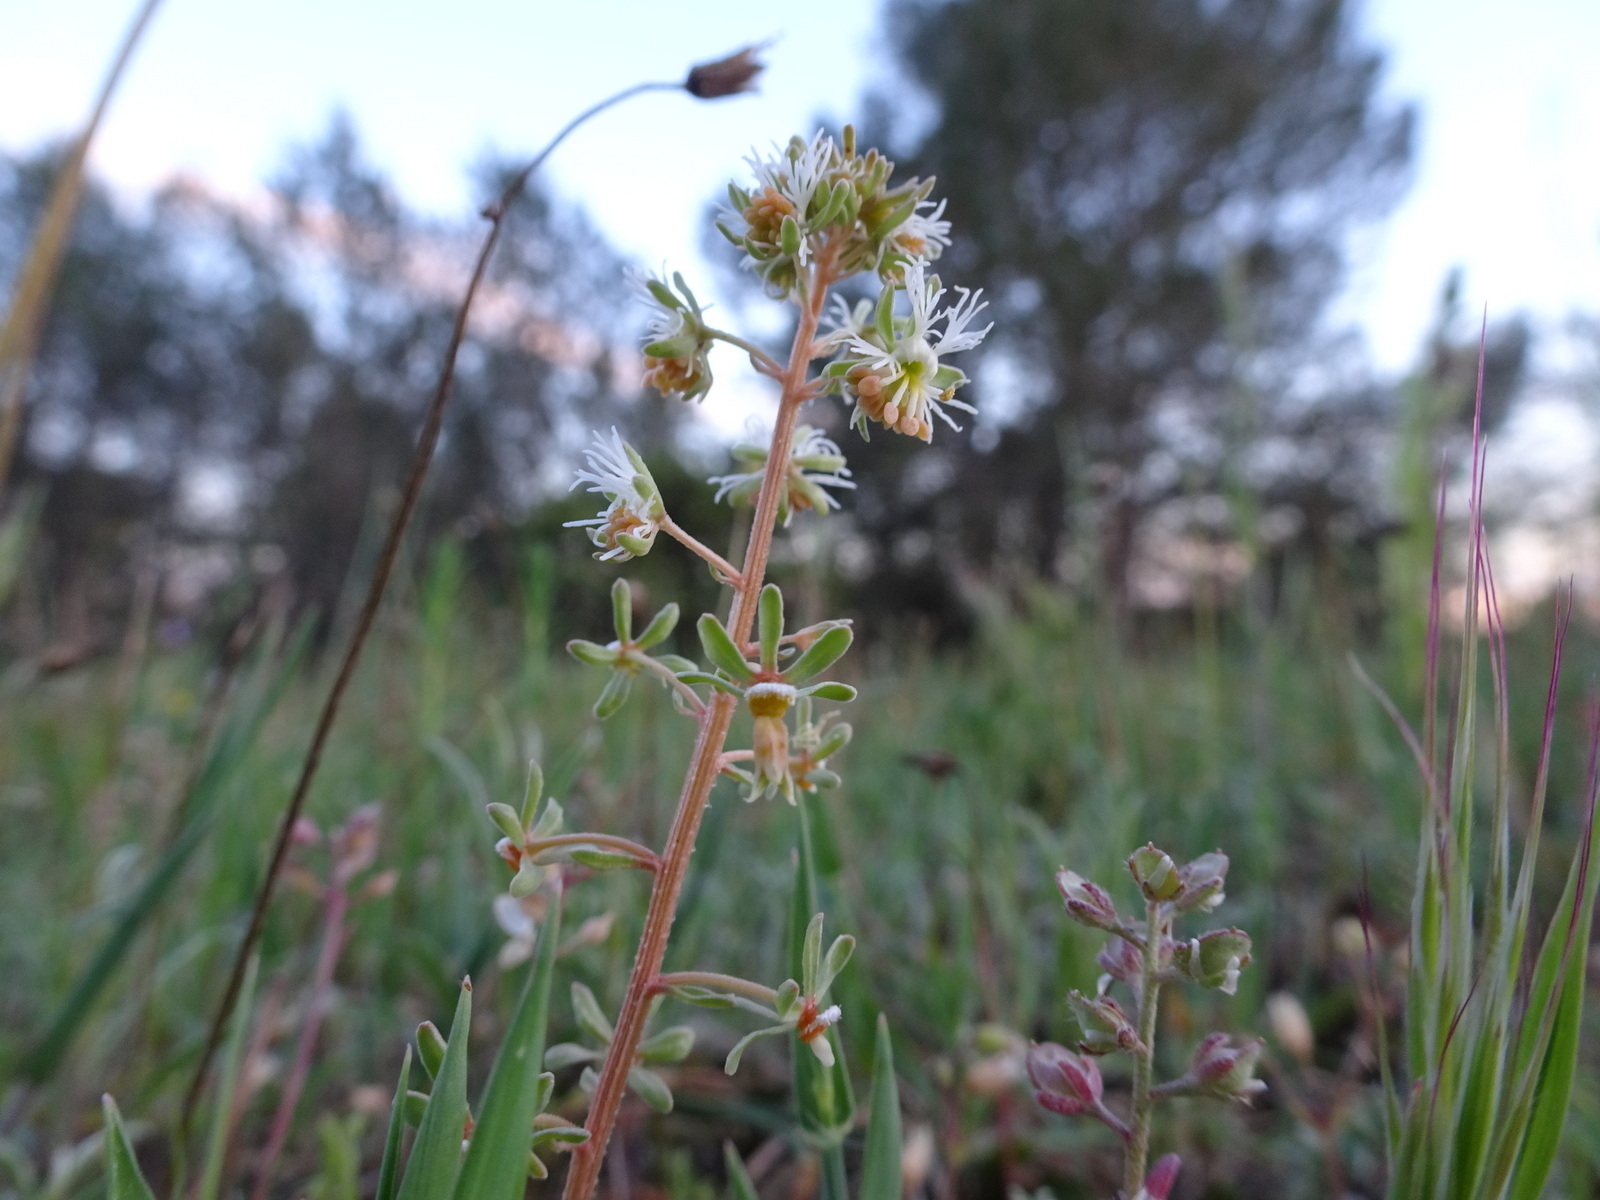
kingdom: Plantae
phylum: Tracheophyta
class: Magnoliopsida
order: Brassicales
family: Resedaceae
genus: Reseda
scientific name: Reseda phyteuma
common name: Corn mignonette
